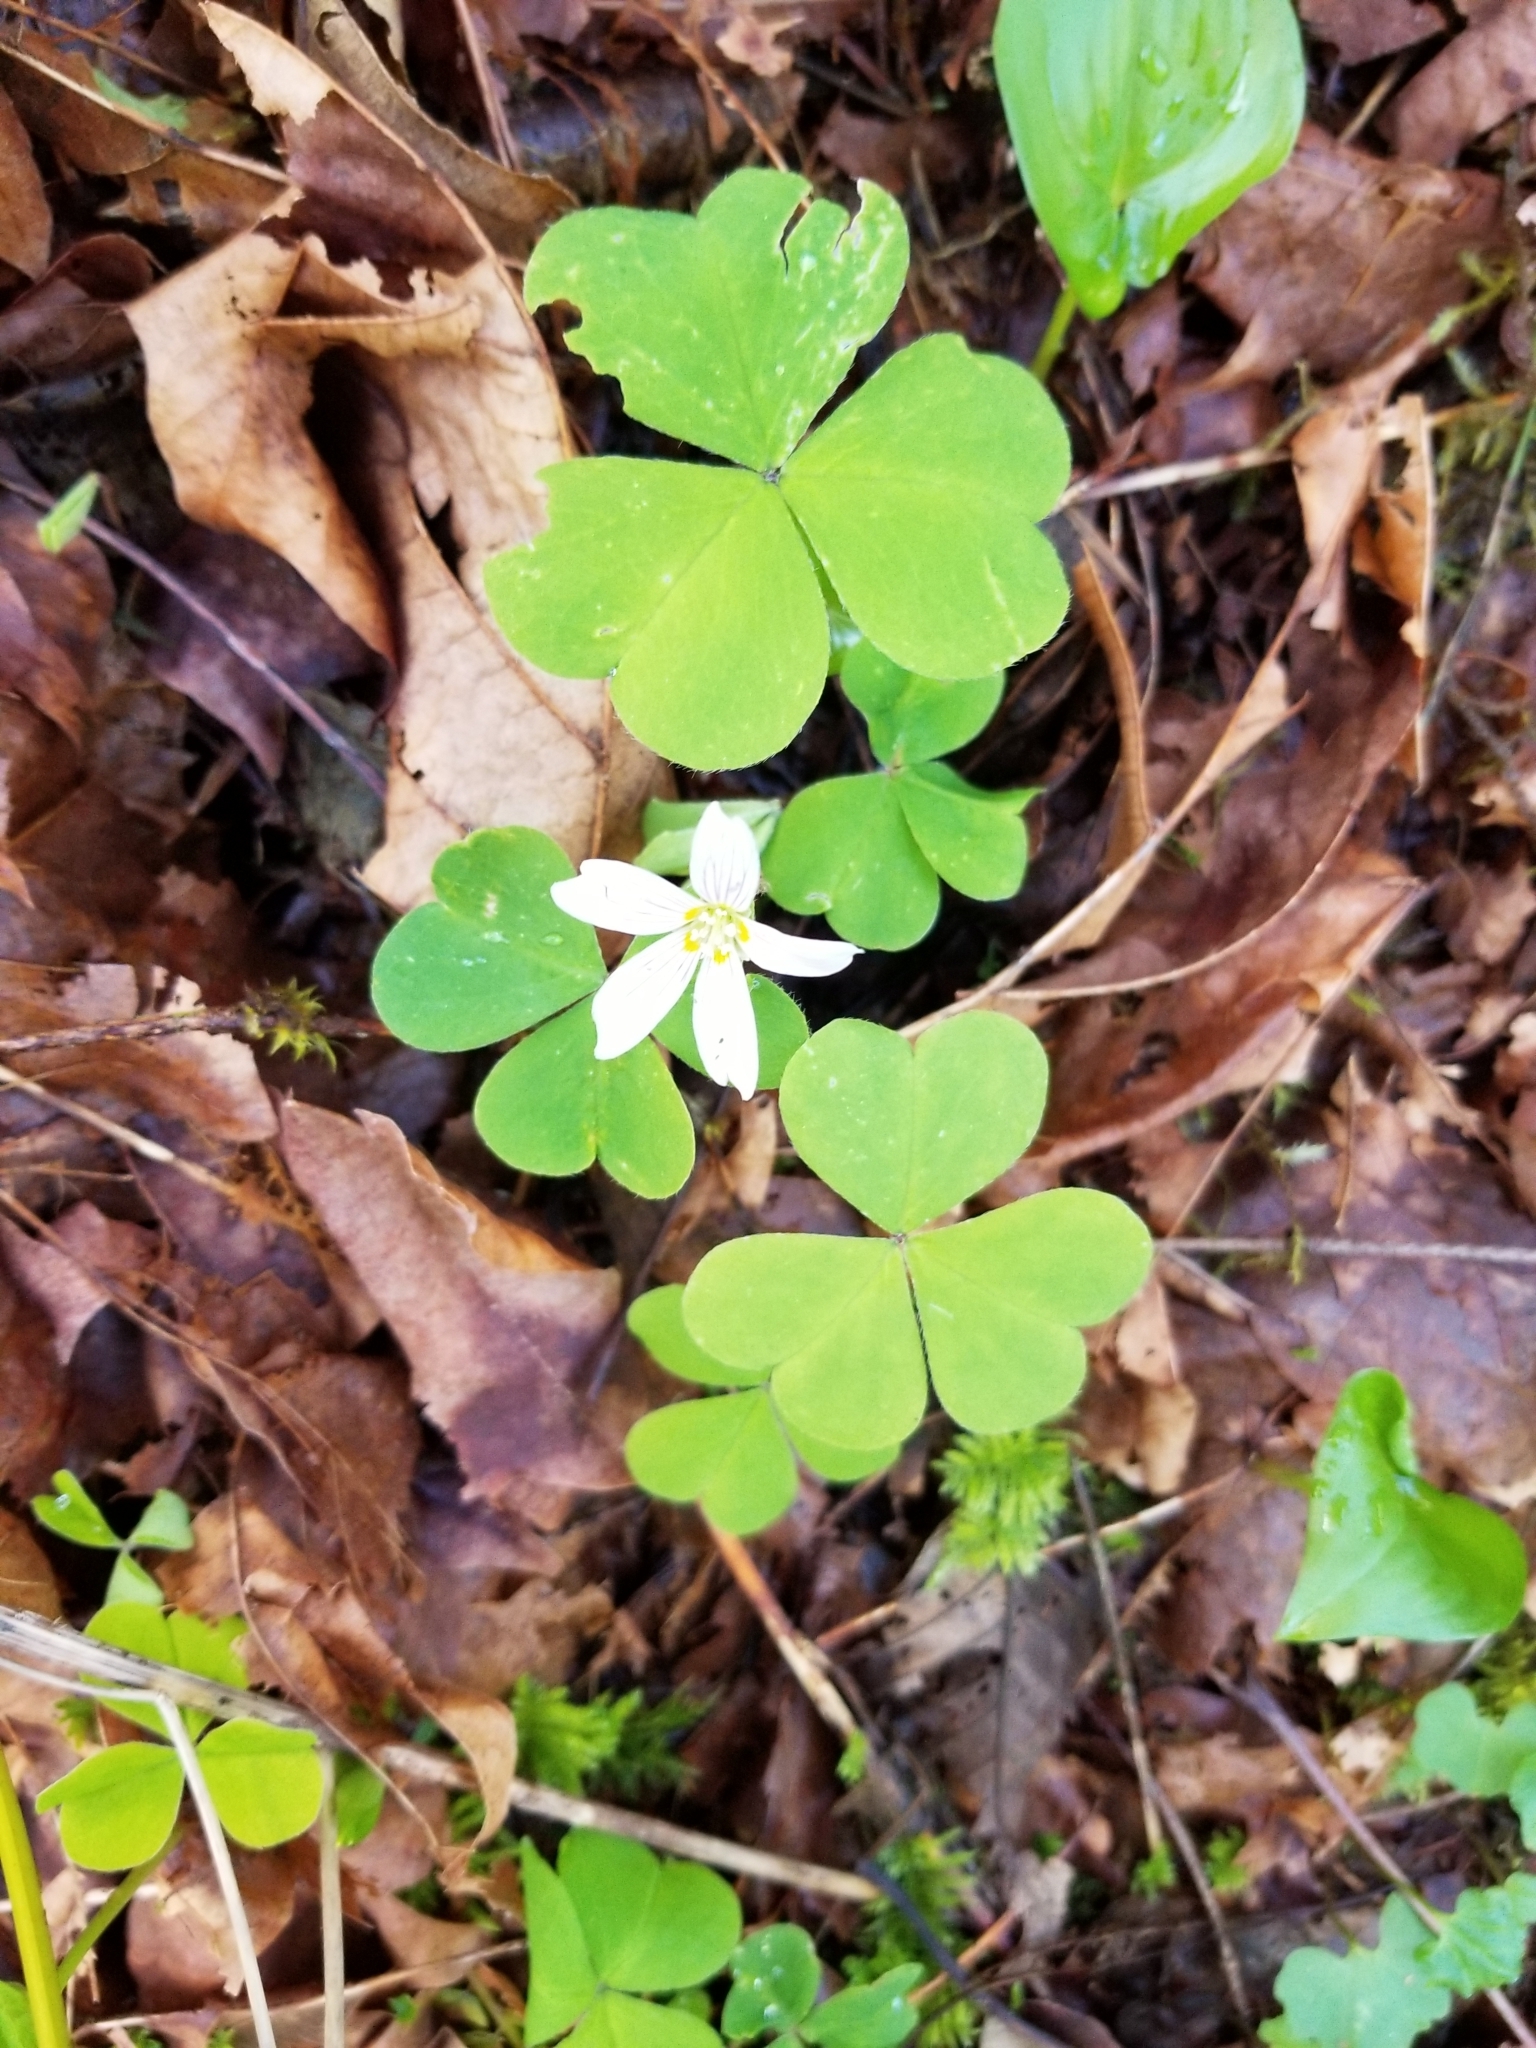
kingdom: Plantae
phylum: Tracheophyta
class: Magnoliopsida
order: Oxalidales
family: Oxalidaceae
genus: Oxalis
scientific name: Oxalis oregana
